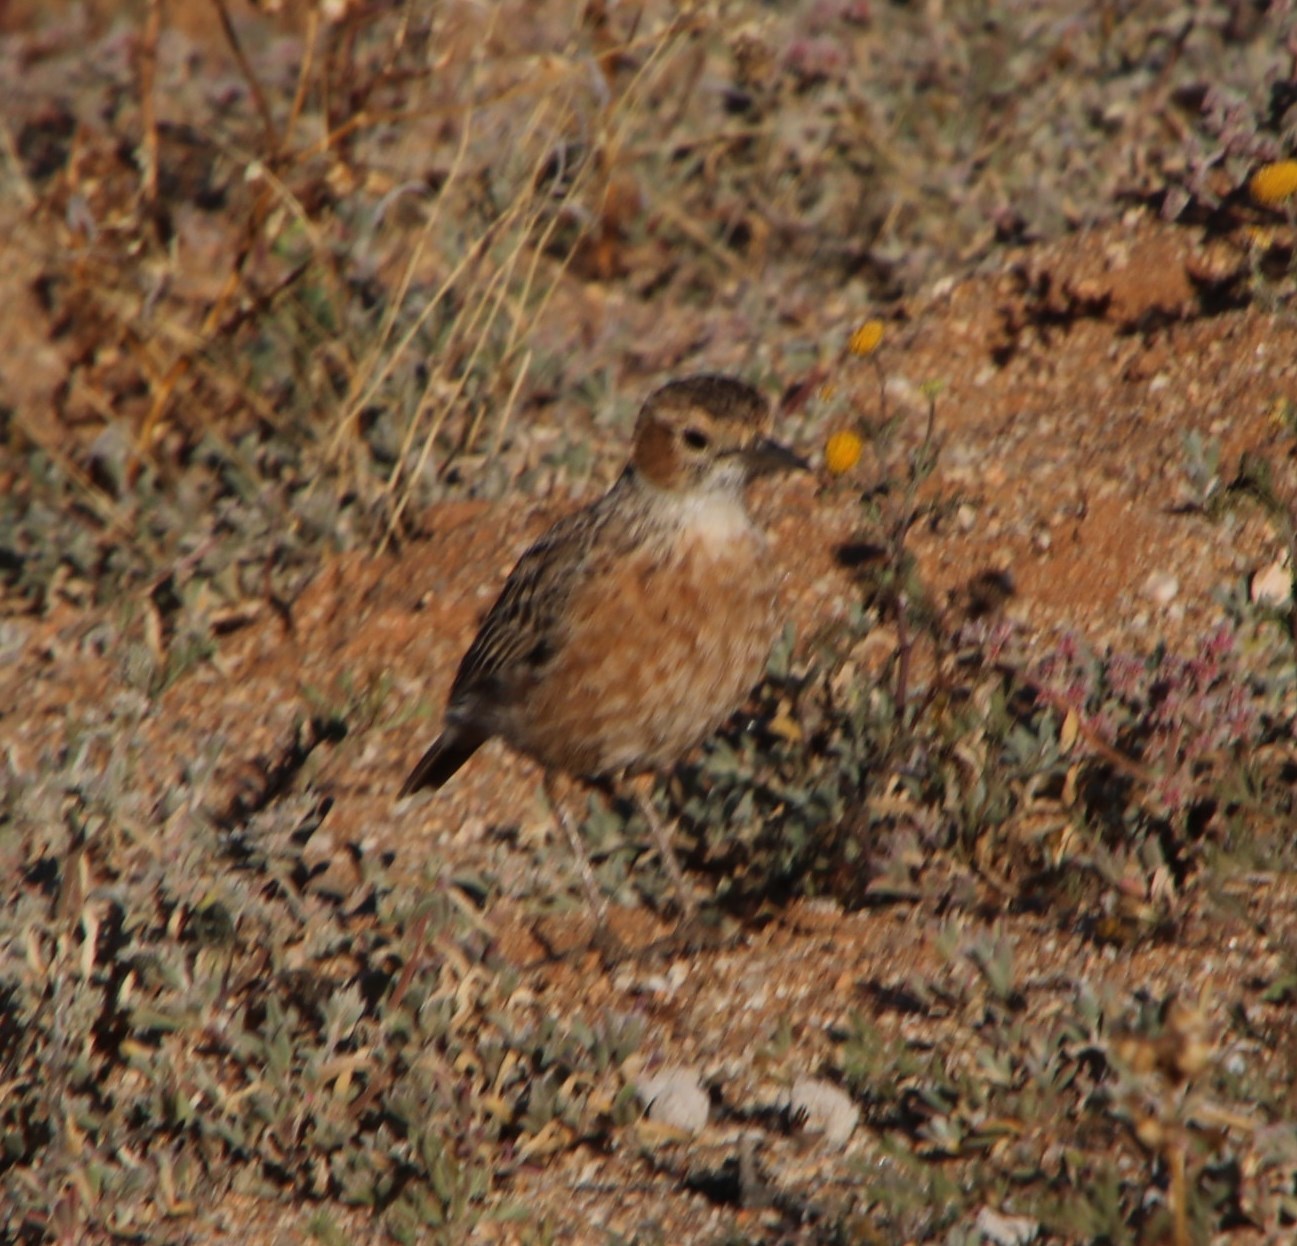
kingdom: Animalia
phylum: Chordata
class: Aves
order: Passeriformes
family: Alaudidae
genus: Chersomanes
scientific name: Chersomanes albofasciata
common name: Spike-heeled lark
